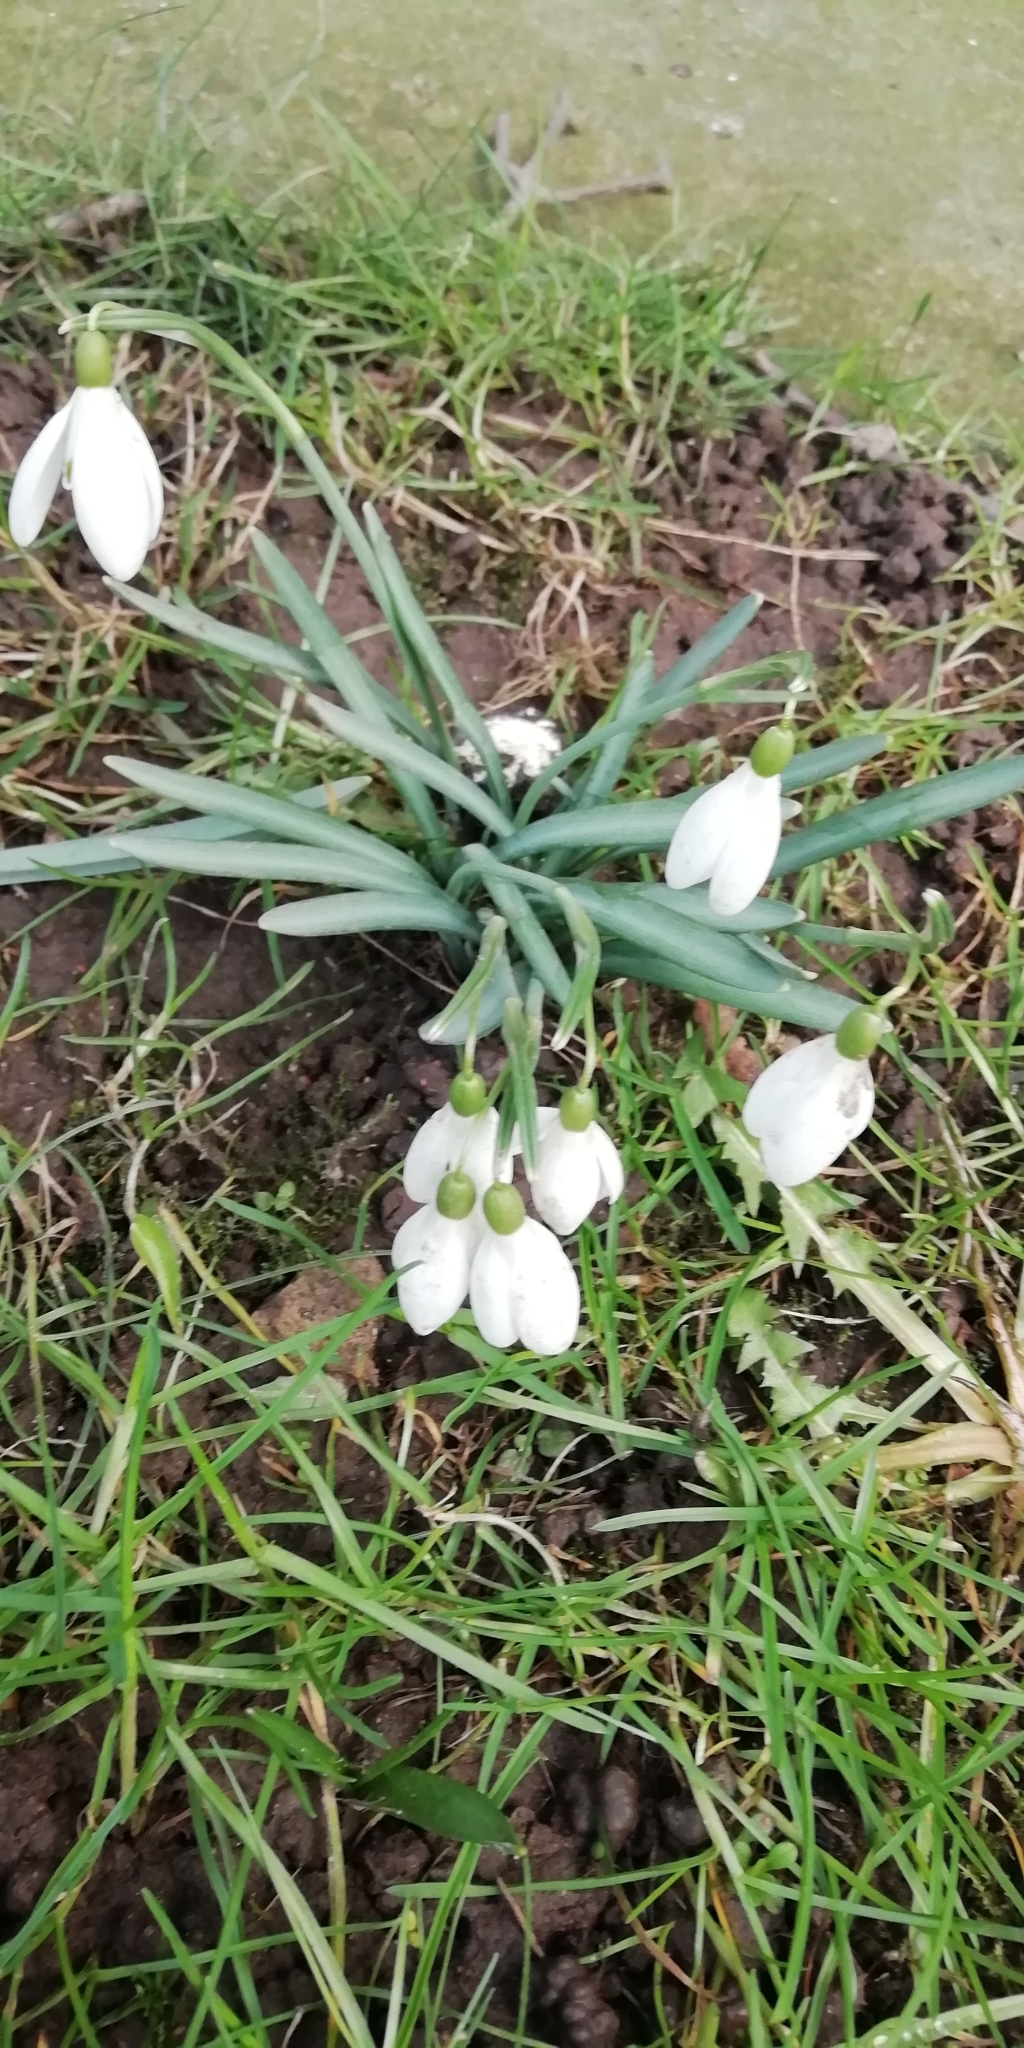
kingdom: Plantae
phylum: Tracheophyta
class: Liliopsida
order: Asparagales
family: Amaryllidaceae
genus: Galanthus
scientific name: Galanthus nivalis
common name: Snowdrop
